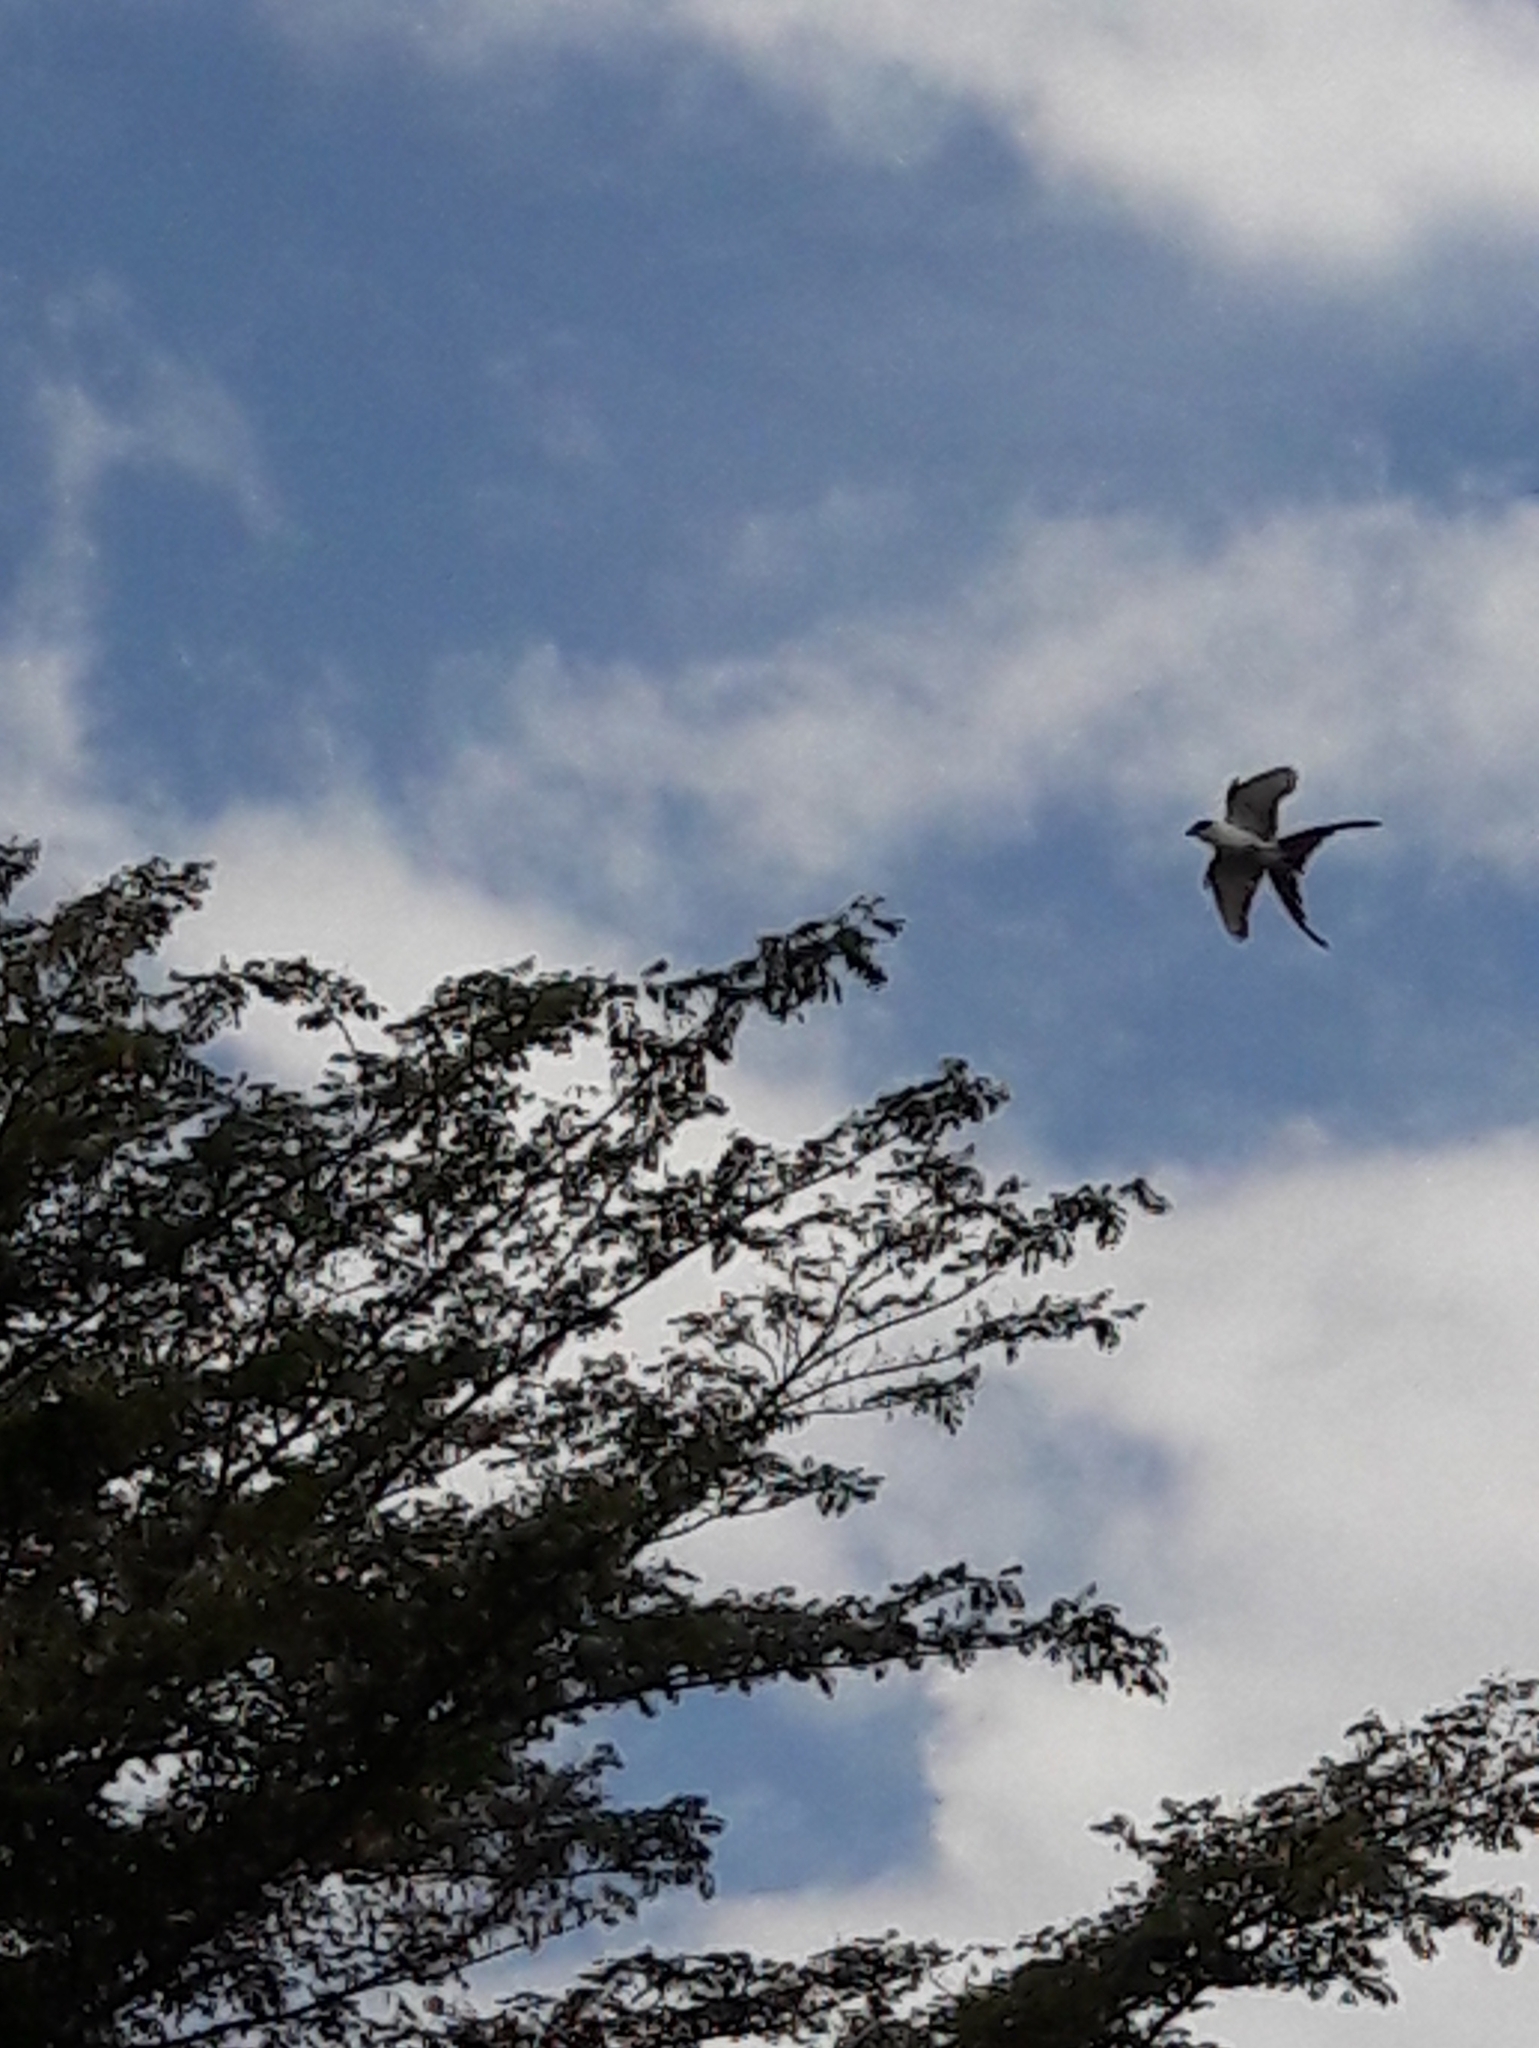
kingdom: Animalia
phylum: Chordata
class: Aves
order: Passeriformes
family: Tyrannidae
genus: Tyrannus
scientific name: Tyrannus savana
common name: Fork-tailed flycatcher
